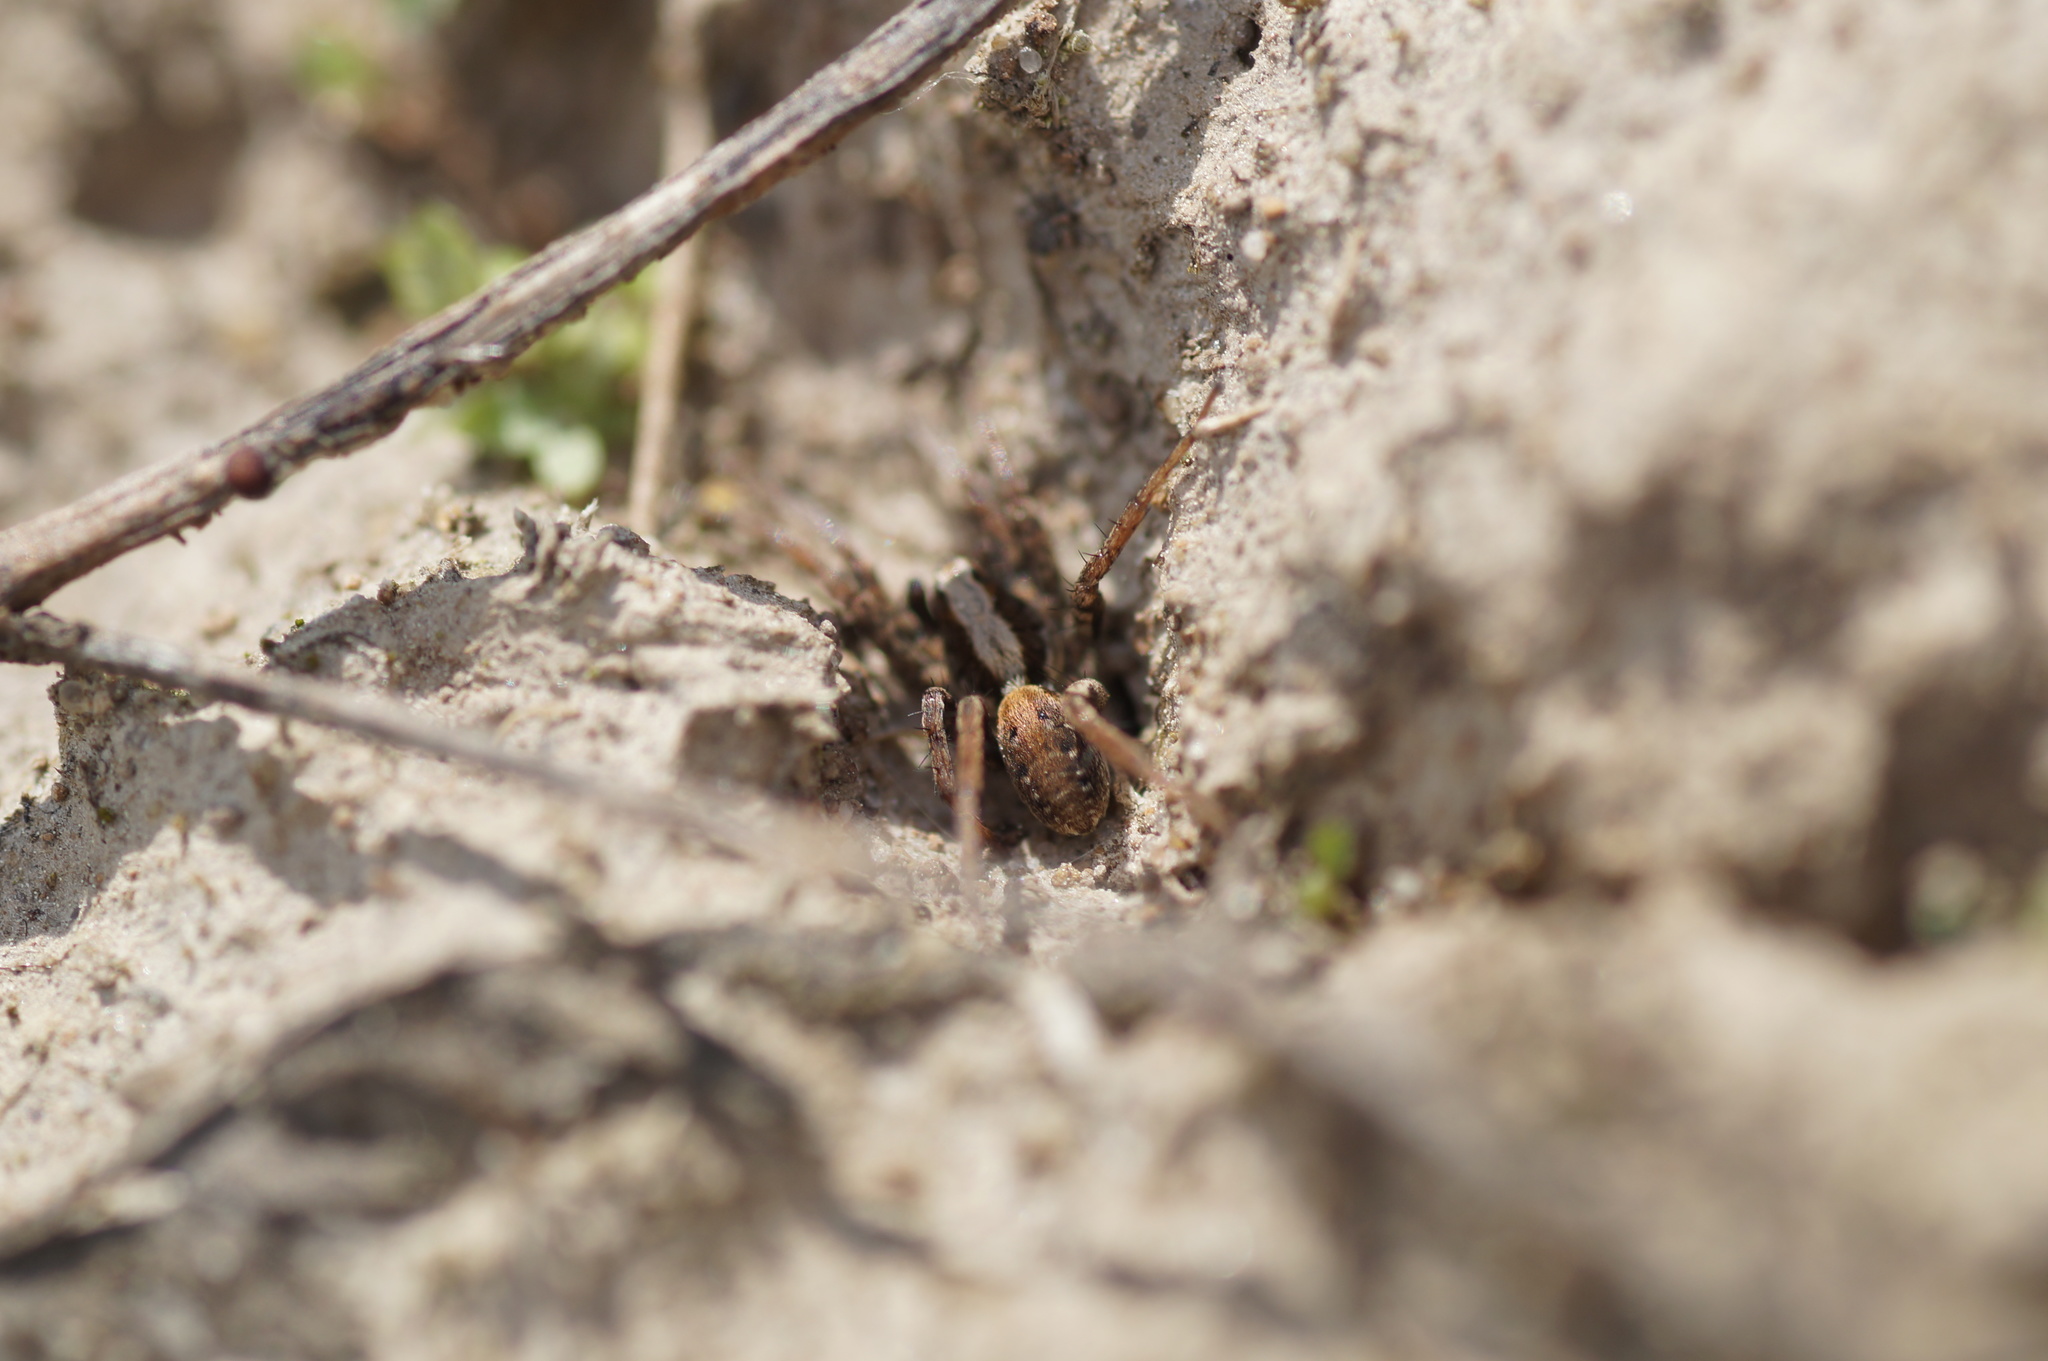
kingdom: Animalia
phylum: Arthropoda
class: Arachnida
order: Araneae
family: Lycosidae
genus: Xerolycosa
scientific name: Xerolycosa miniata
